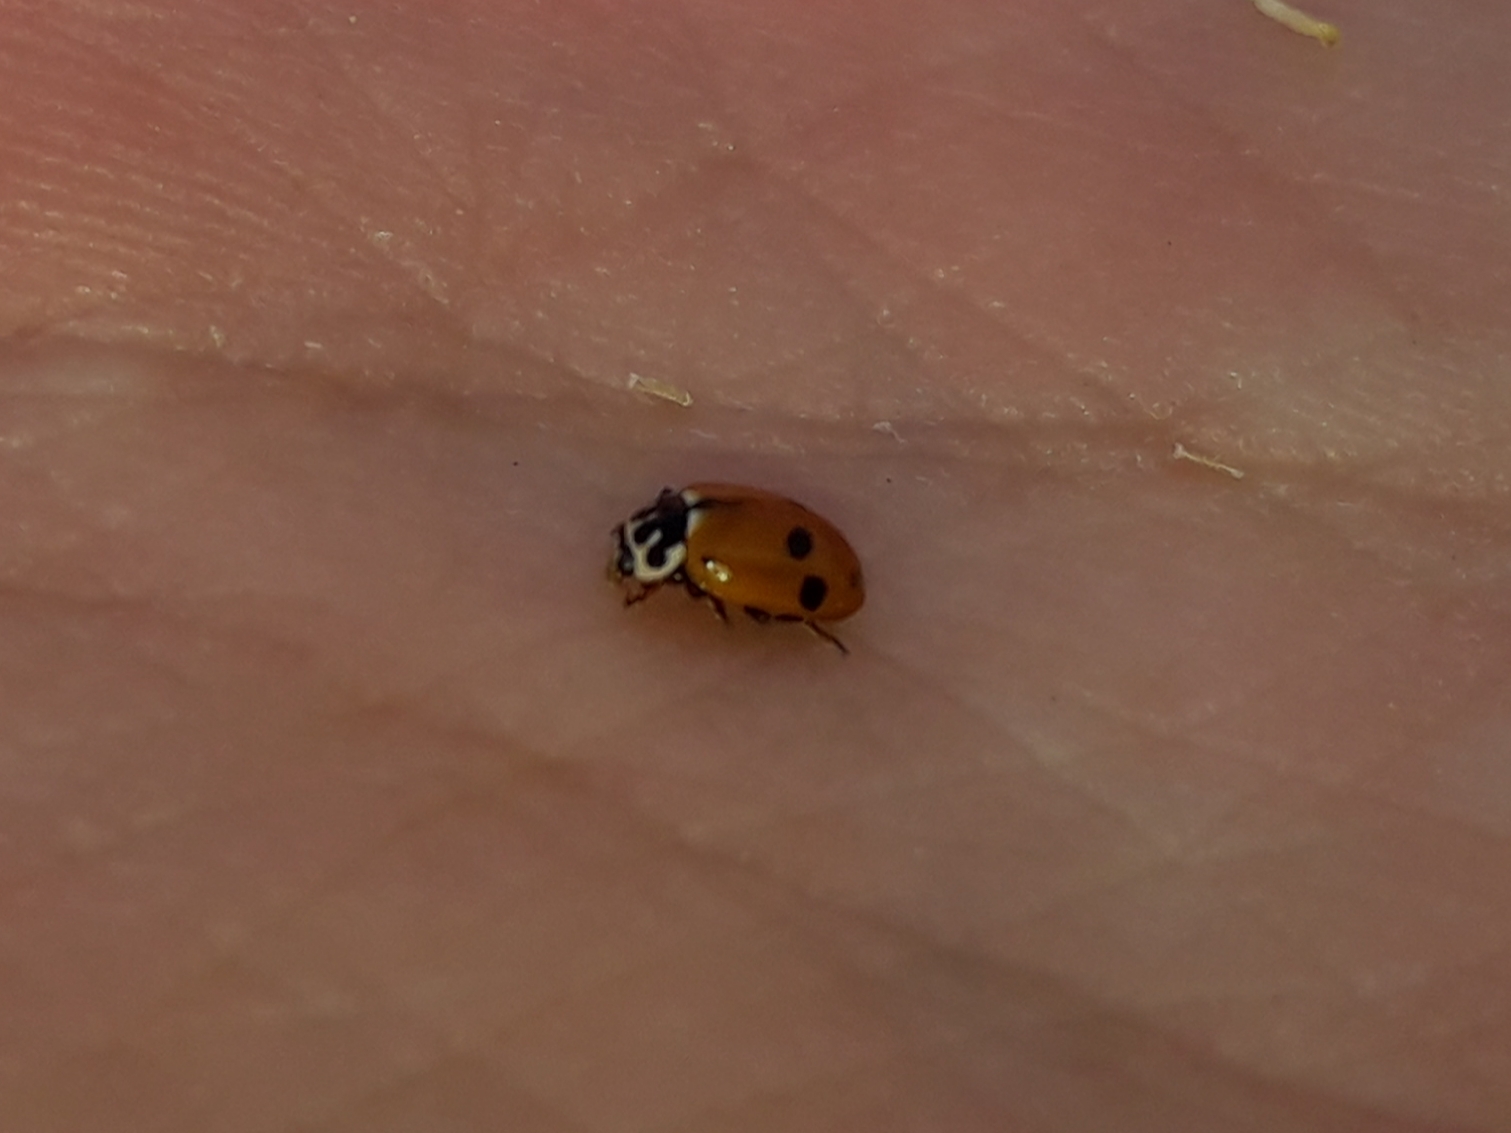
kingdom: Animalia
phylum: Arthropoda
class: Insecta
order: Coleoptera
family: Coccinellidae
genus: Hippodamia
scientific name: Hippodamia variegata
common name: Ladybird beetle
